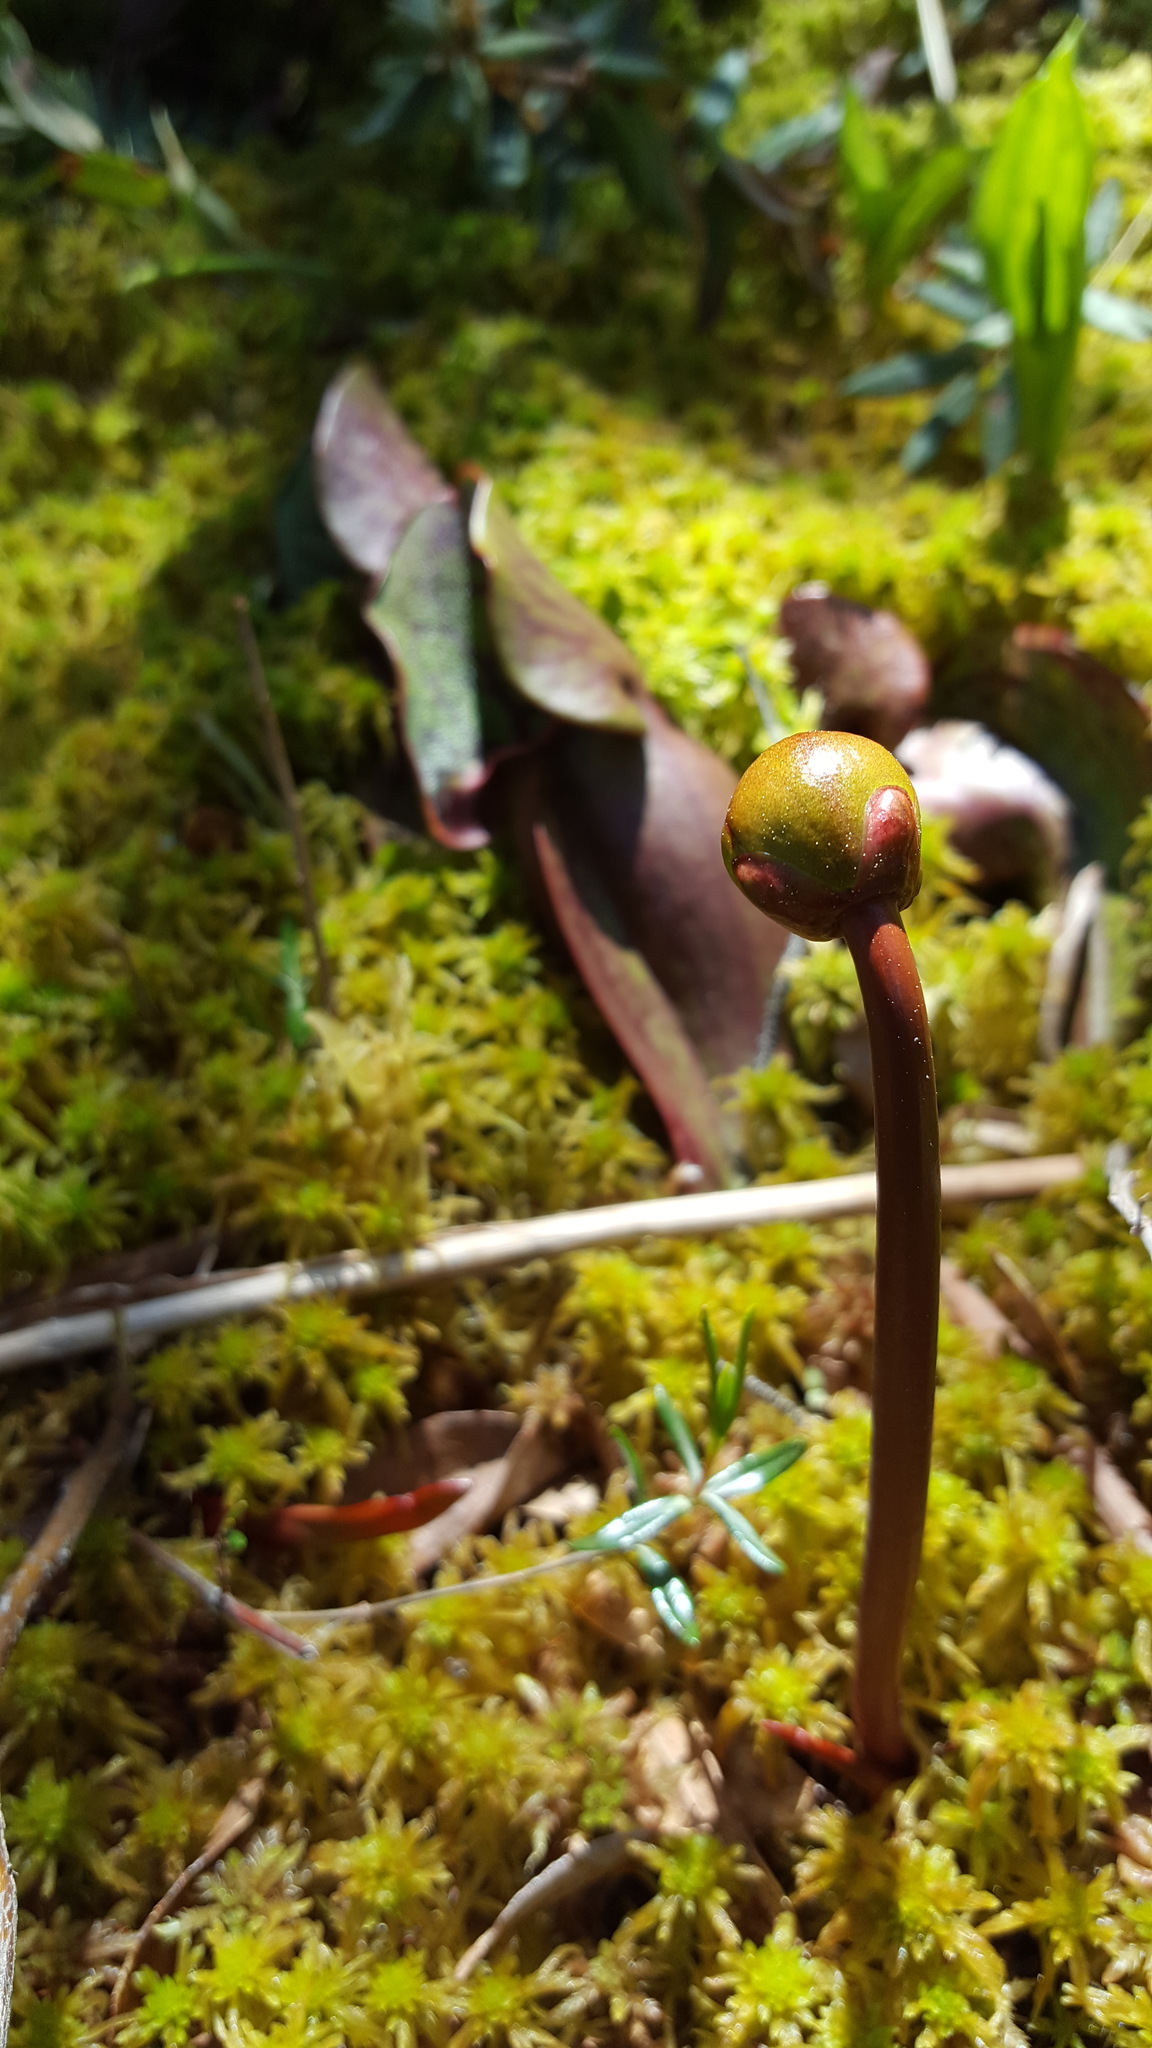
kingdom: Plantae
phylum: Tracheophyta
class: Magnoliopsida
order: Ericales
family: Sarraceniaceae
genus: Sarracenia
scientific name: Sarracenia purpurea
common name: Pitcherplant
